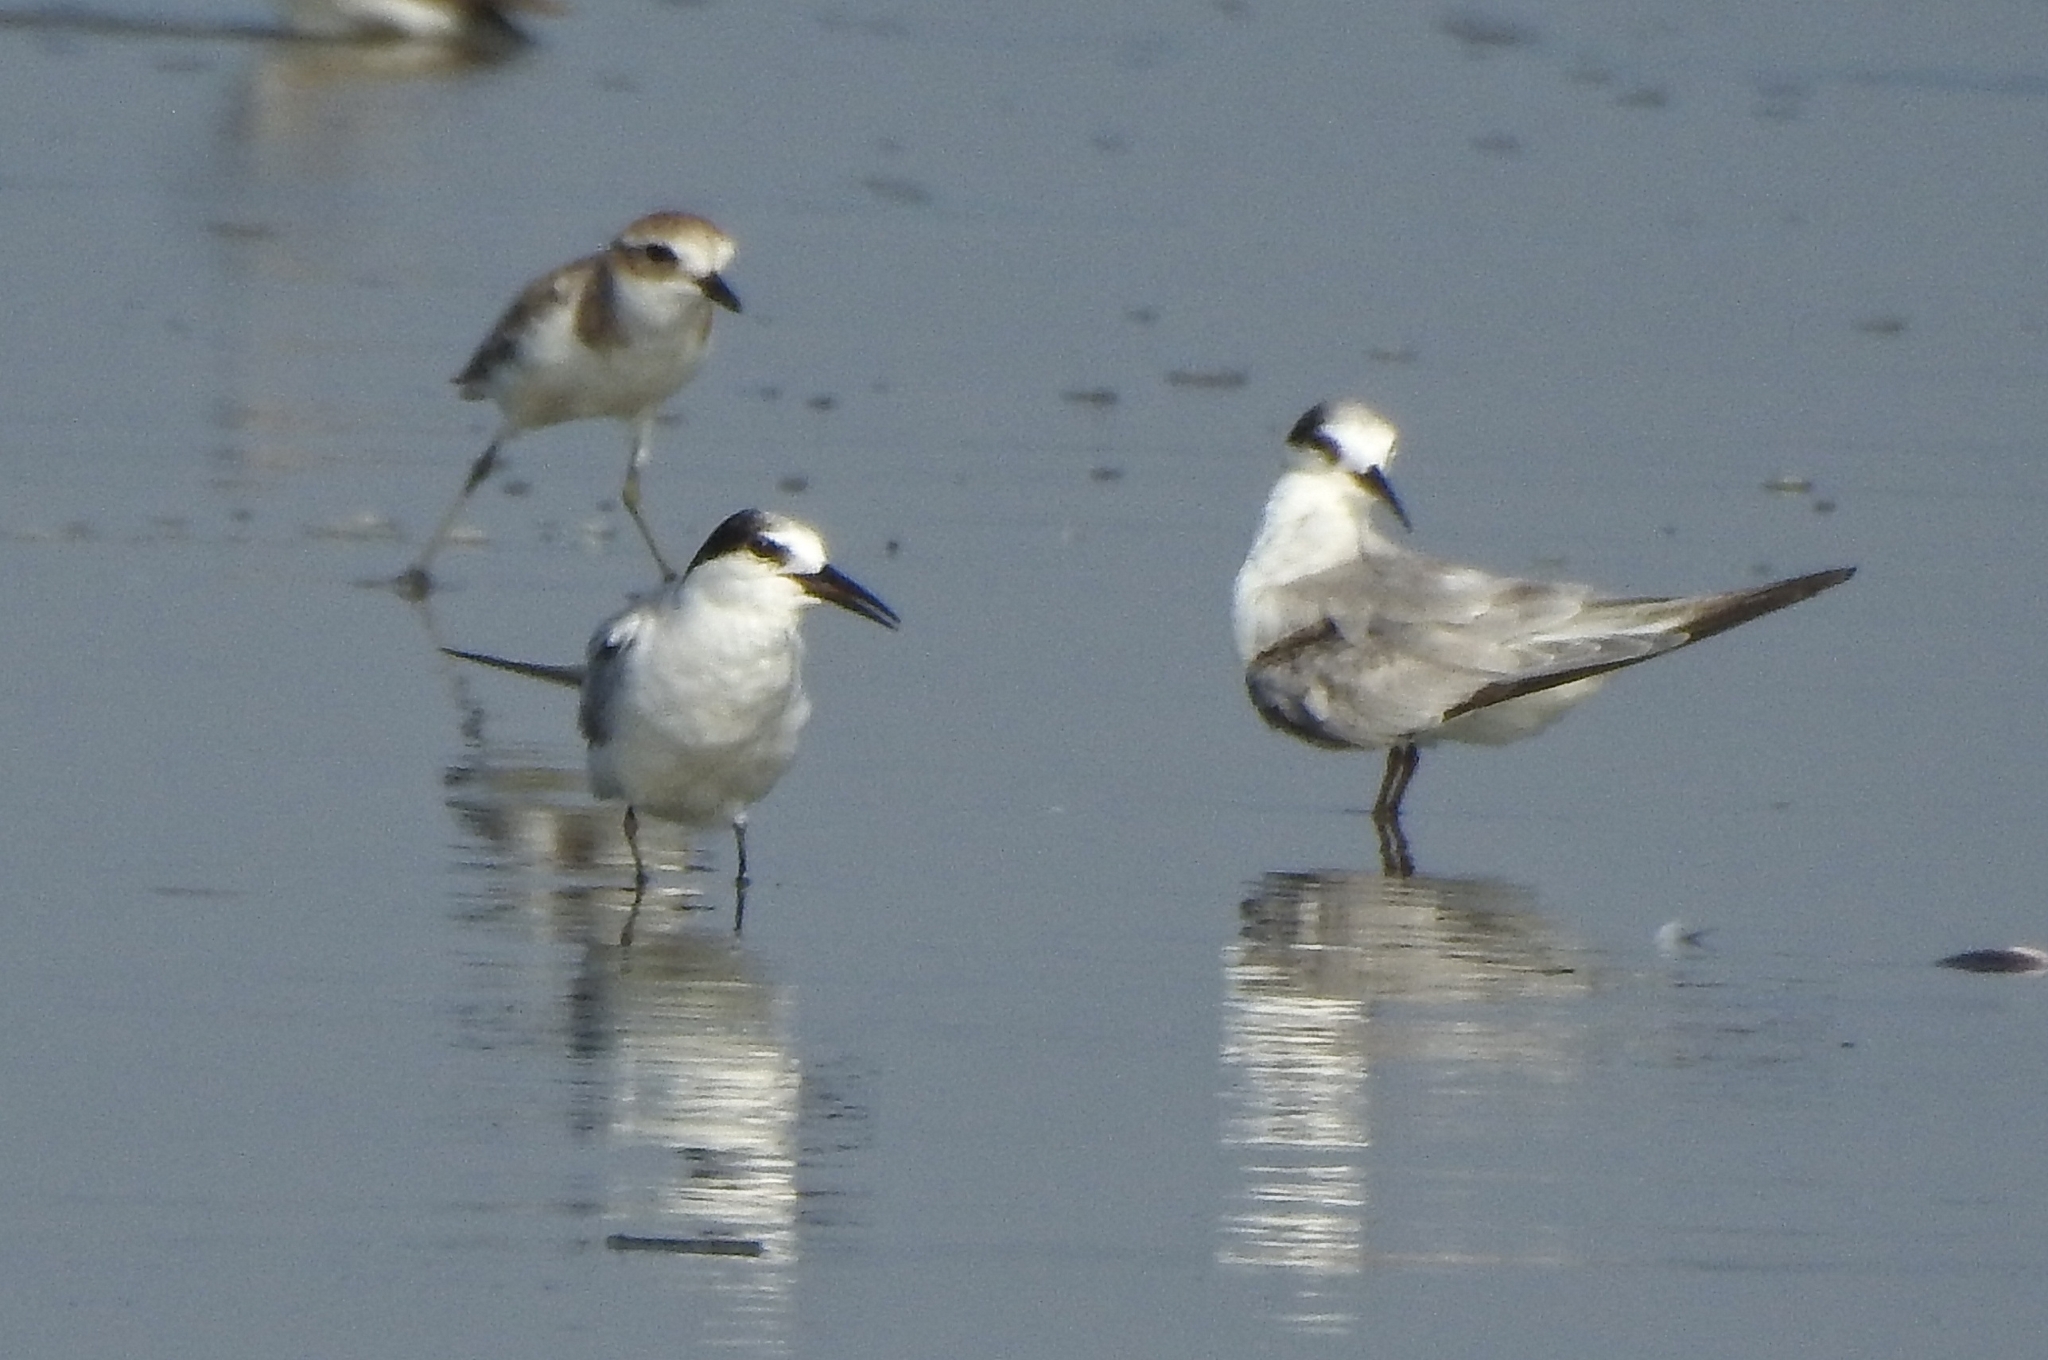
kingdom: Animalia
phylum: Chordata
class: Aves
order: Charadriiformes
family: Laridae
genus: Sternula
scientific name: Sternula albifrons
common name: Little tern
